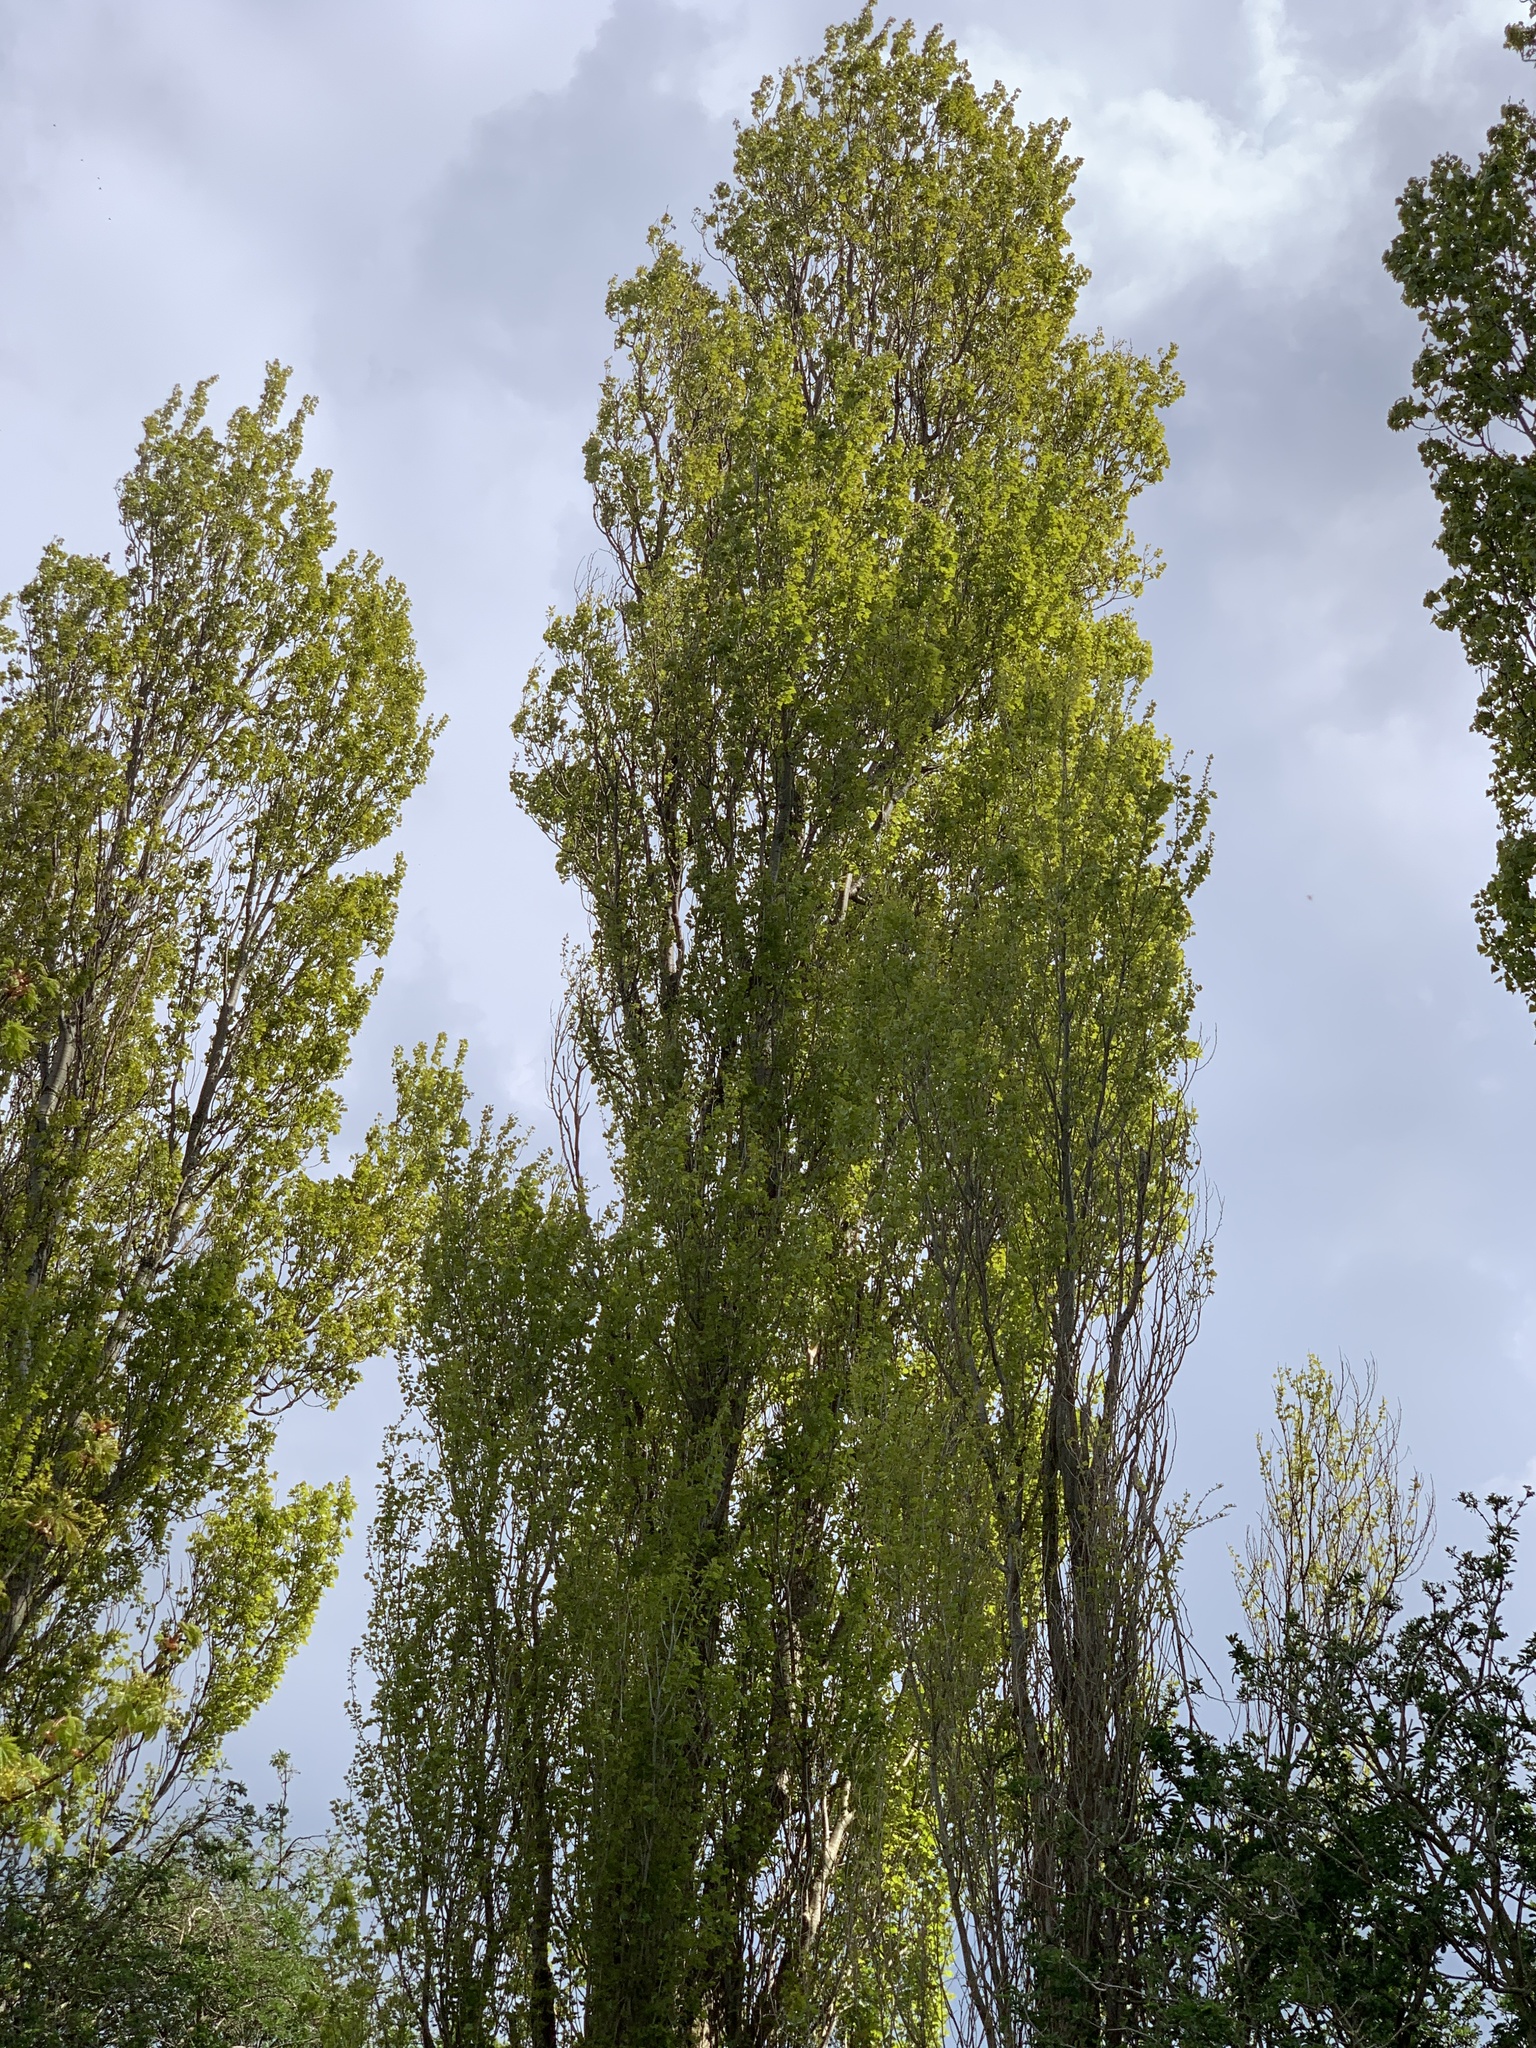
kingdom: Plantae
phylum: Tracheophyta
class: Magnoliopsida
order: Malpighiales
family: Salicaceae
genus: Populus
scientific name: Populus nigra
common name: Black poplar
